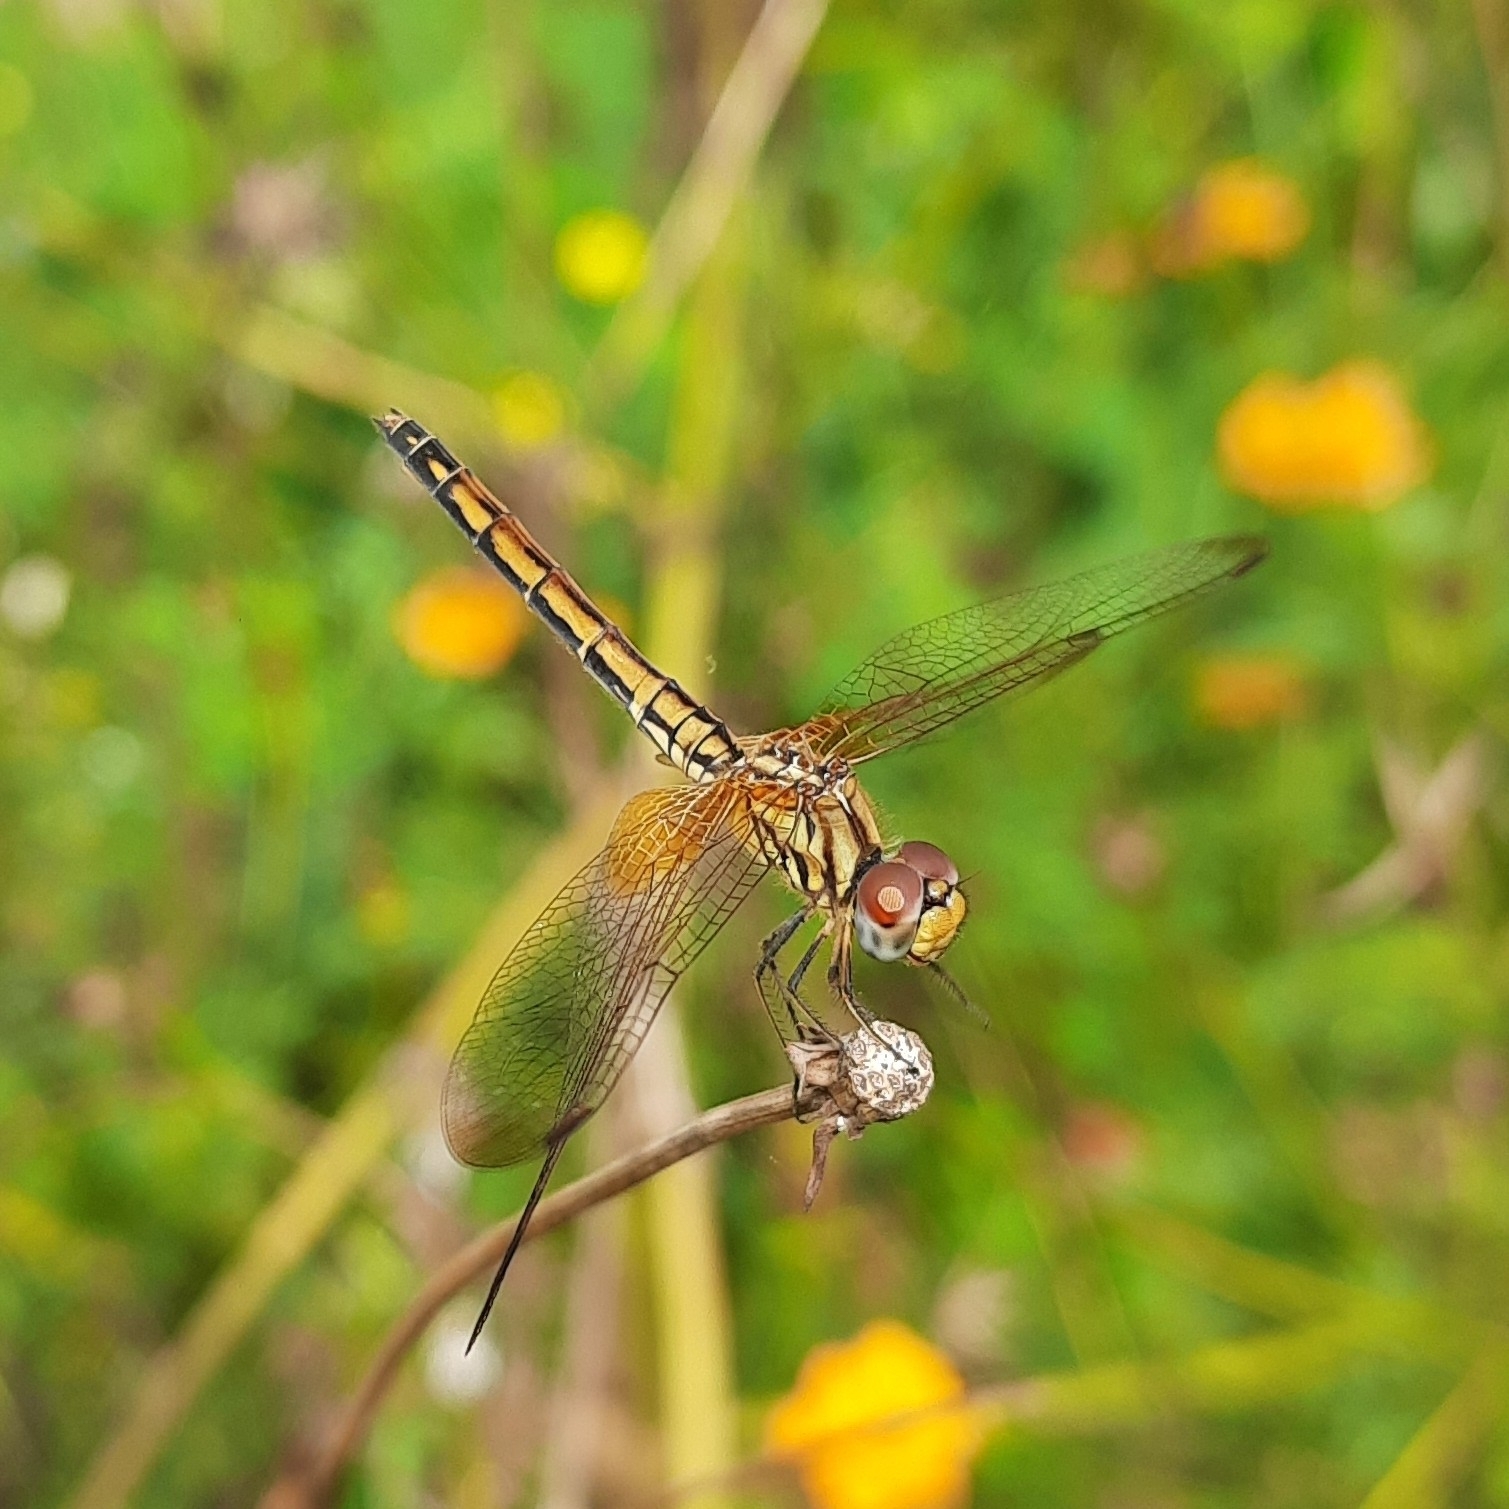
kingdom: Animalia
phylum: Arthropoda
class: Insecta
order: Odonata
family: Libellulidae
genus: Trithemis
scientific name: Trithemis aurora
